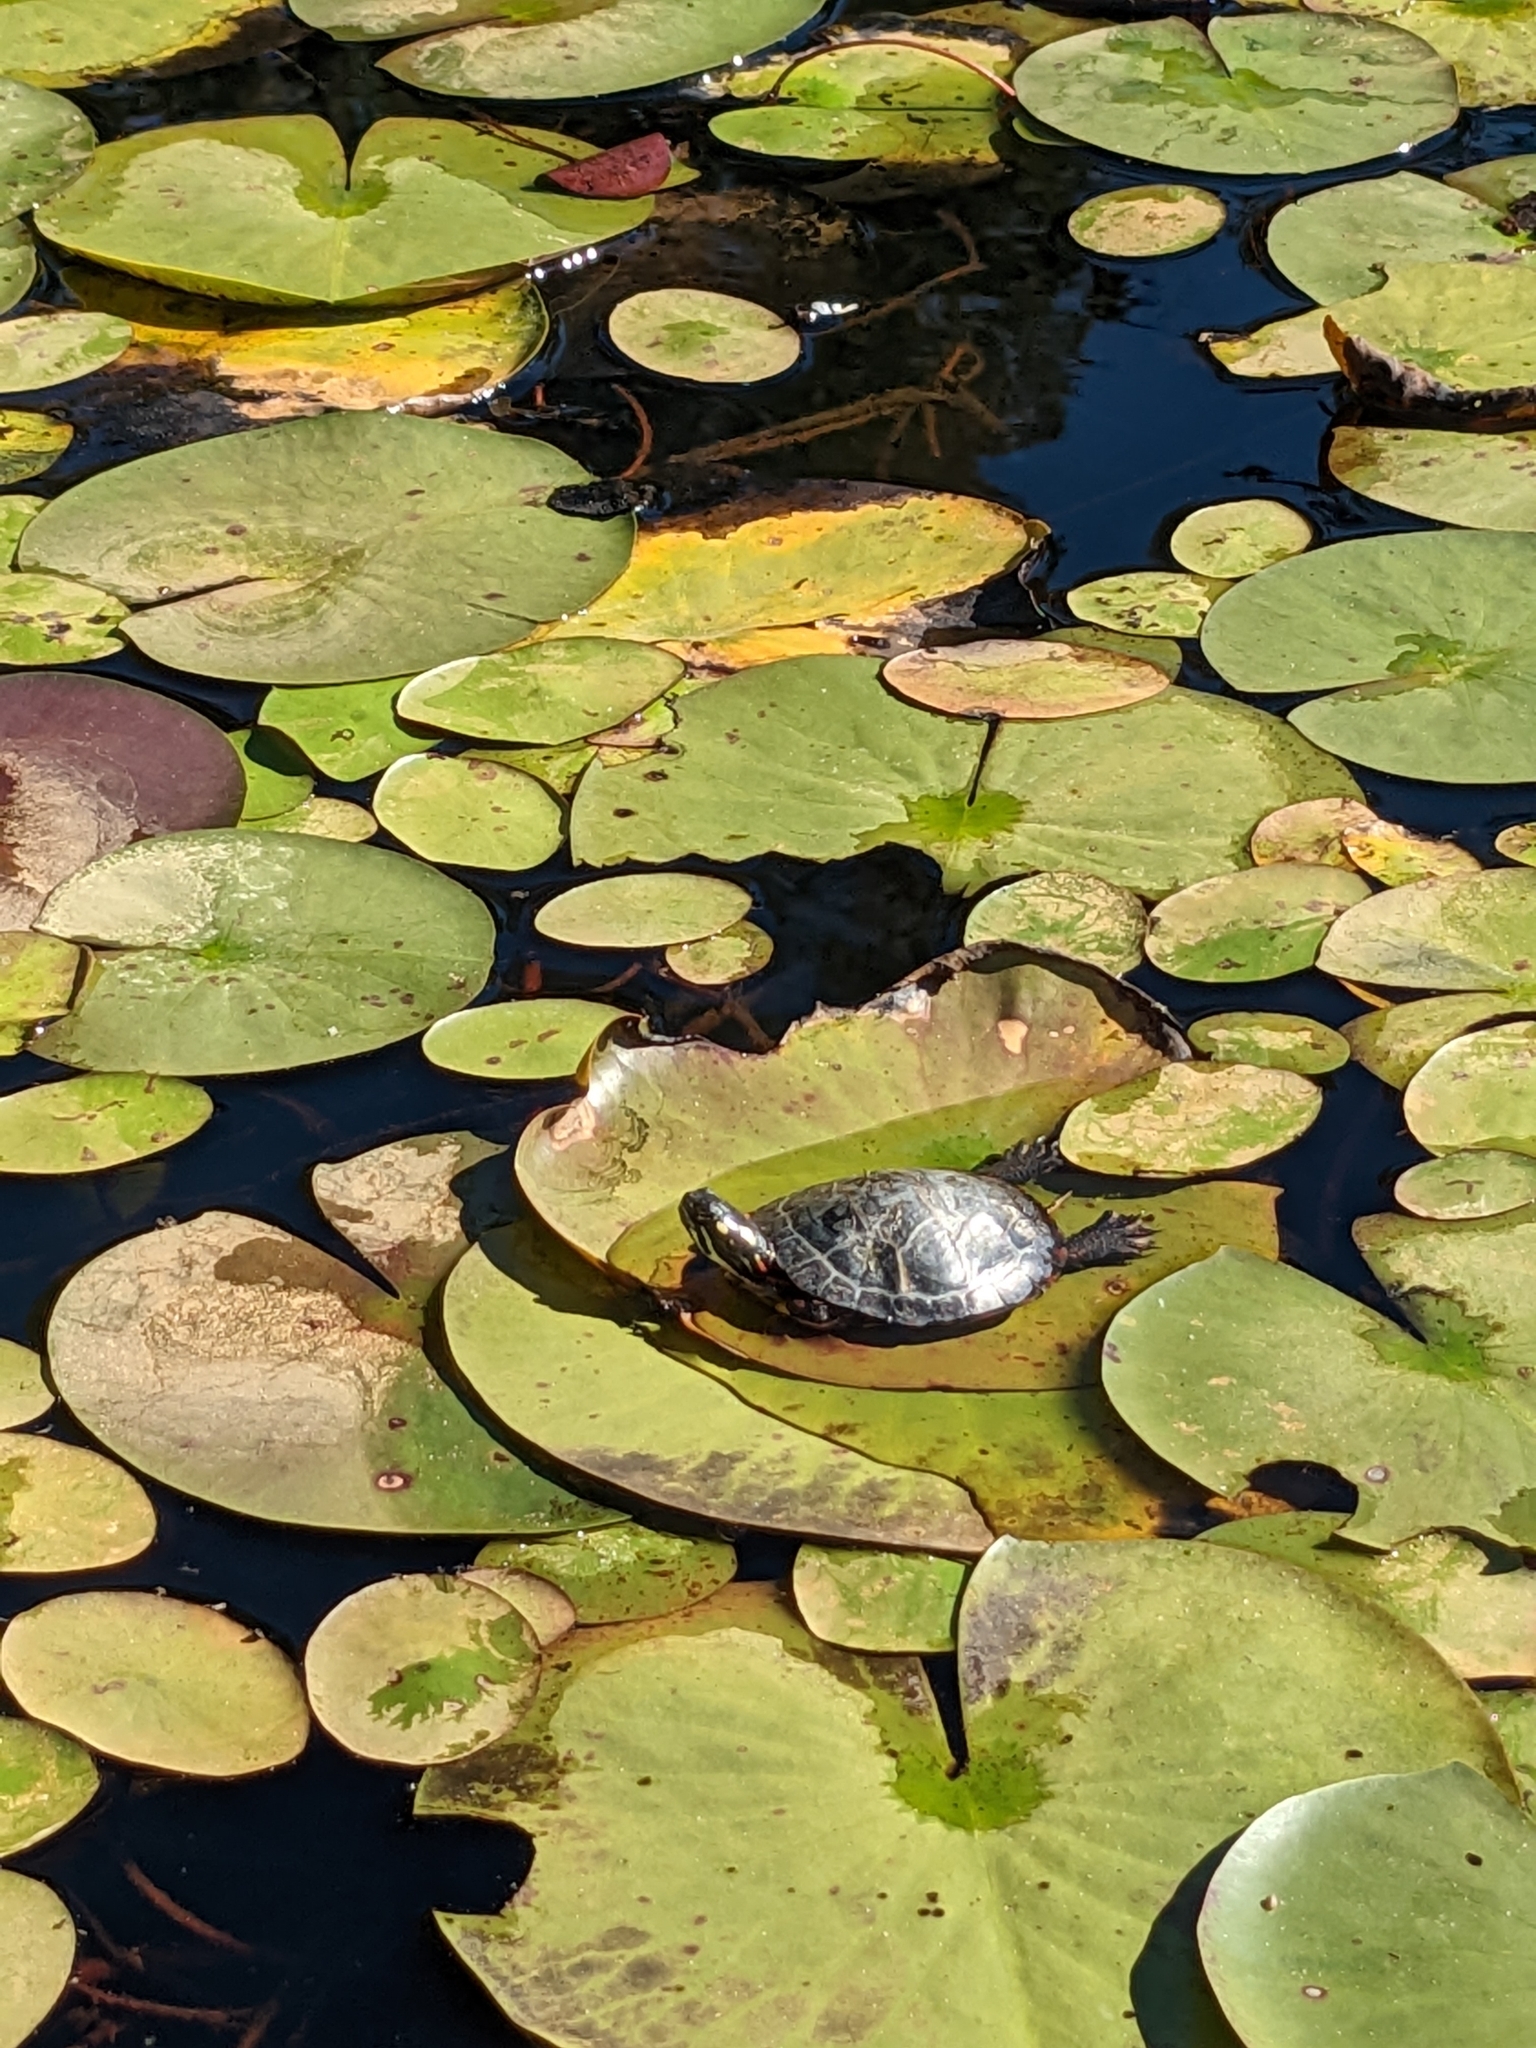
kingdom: Animalia
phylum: Chordata
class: Testudines
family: Emydidae
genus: Chrysemys
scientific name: Chrysemys picta
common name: Painted turtle
